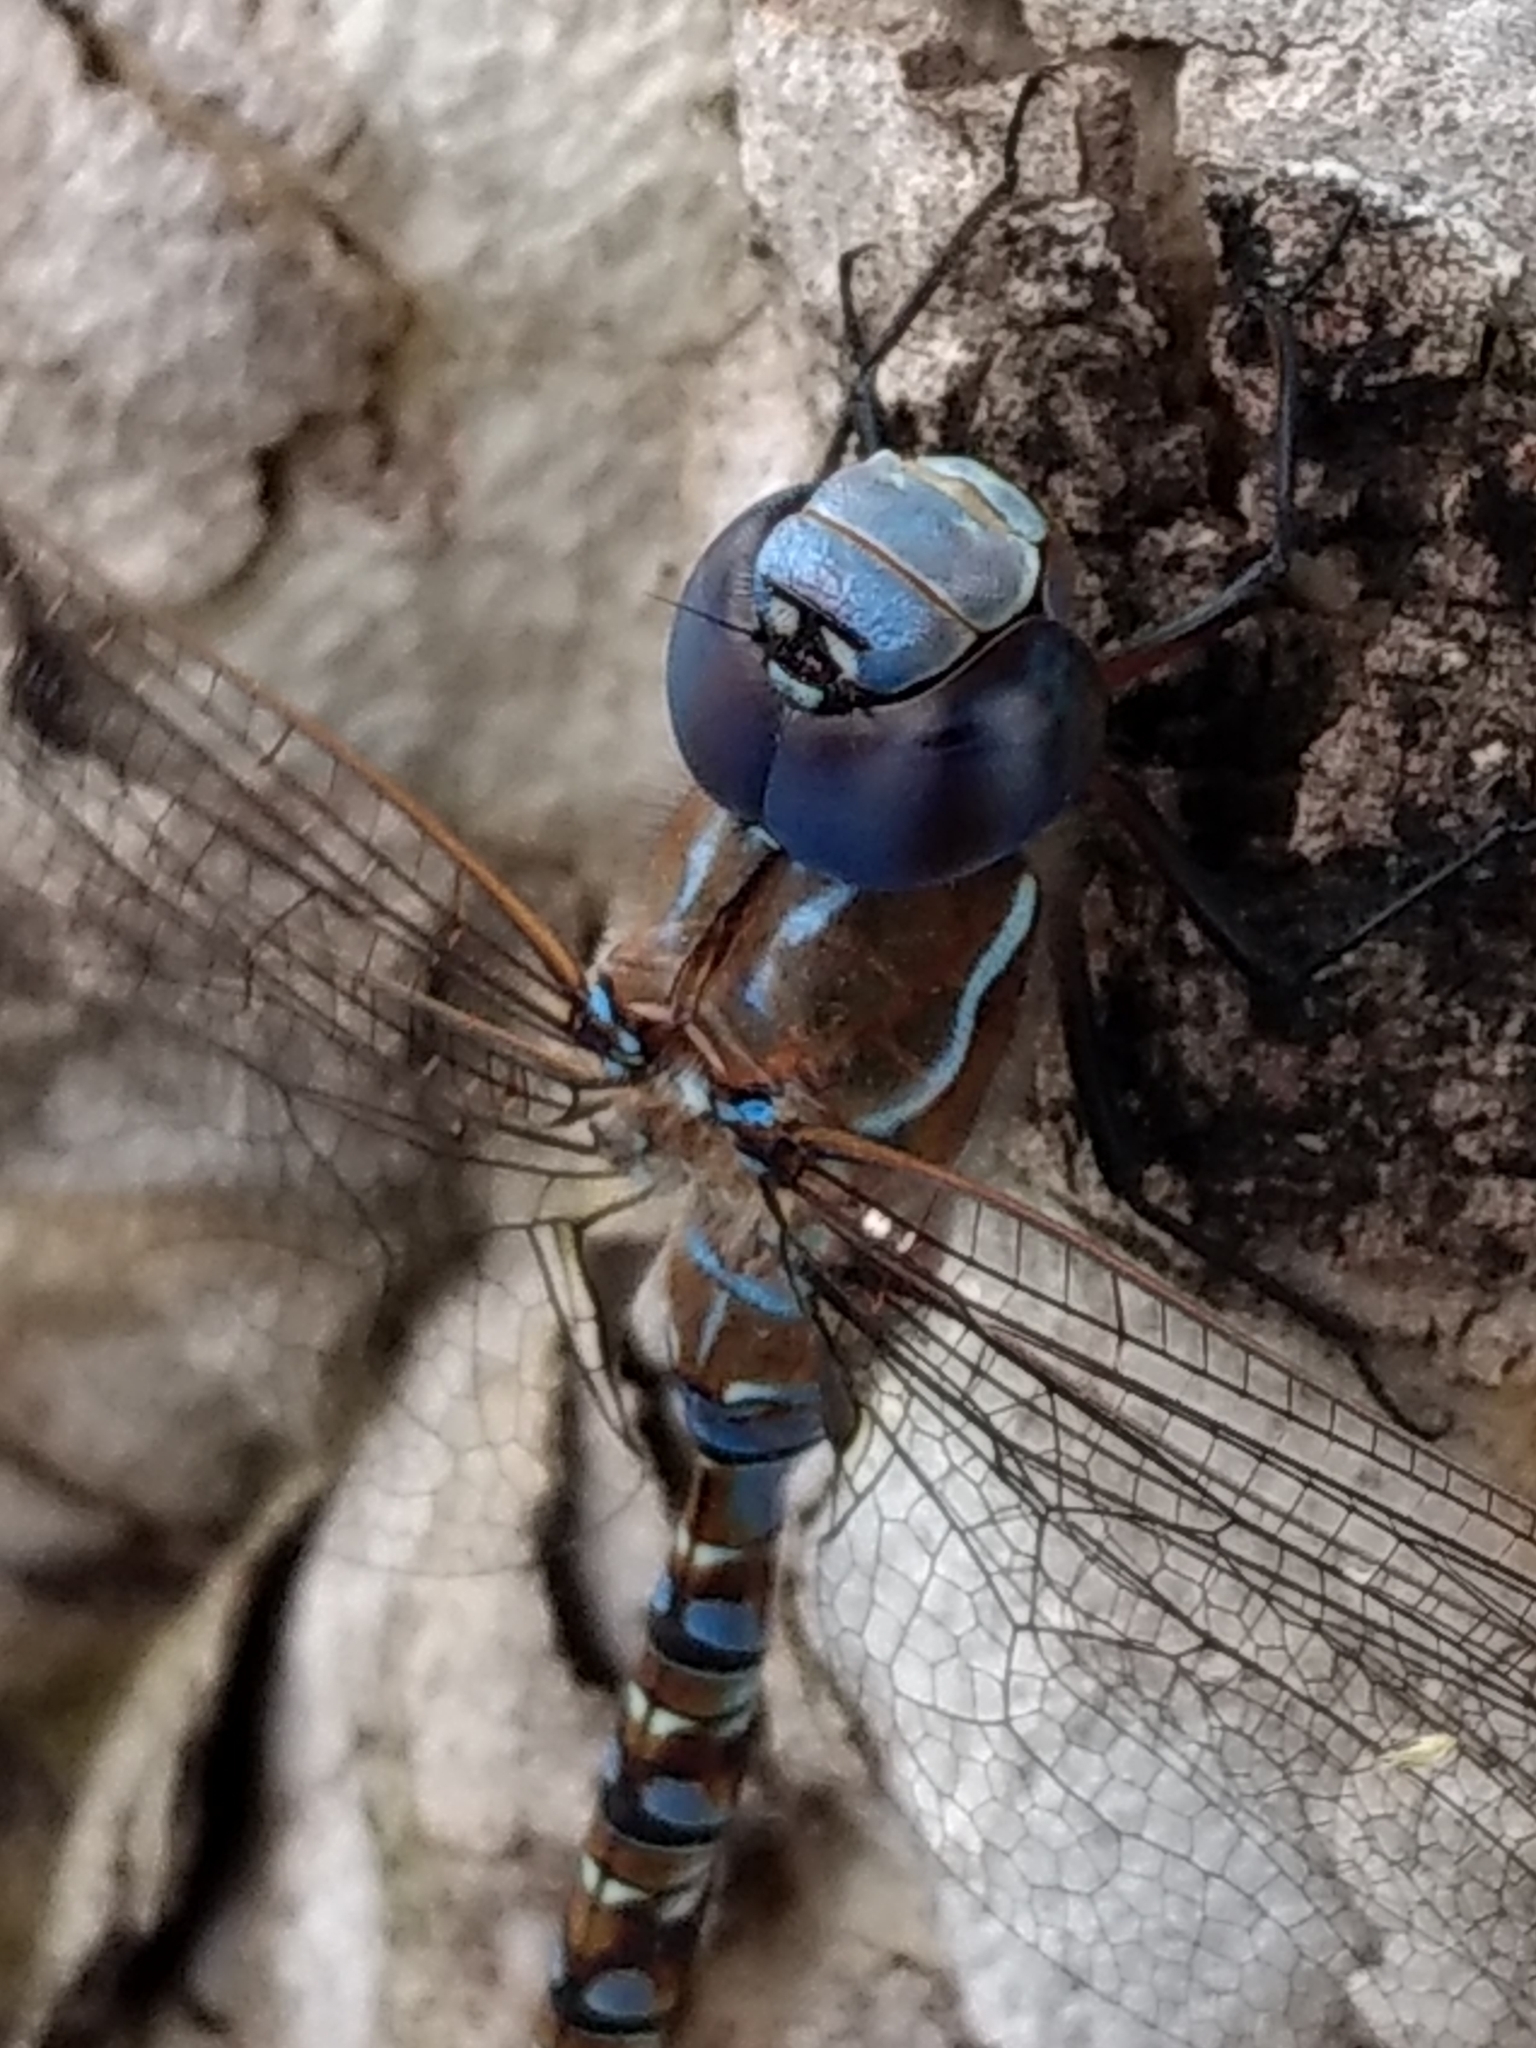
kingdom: Animalia
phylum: Arthropoda
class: Insecta
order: Odonata
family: Aeshnidae
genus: Rhionaeschna
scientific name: Rhionaeschna multicolor
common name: Blue-eyed darner
